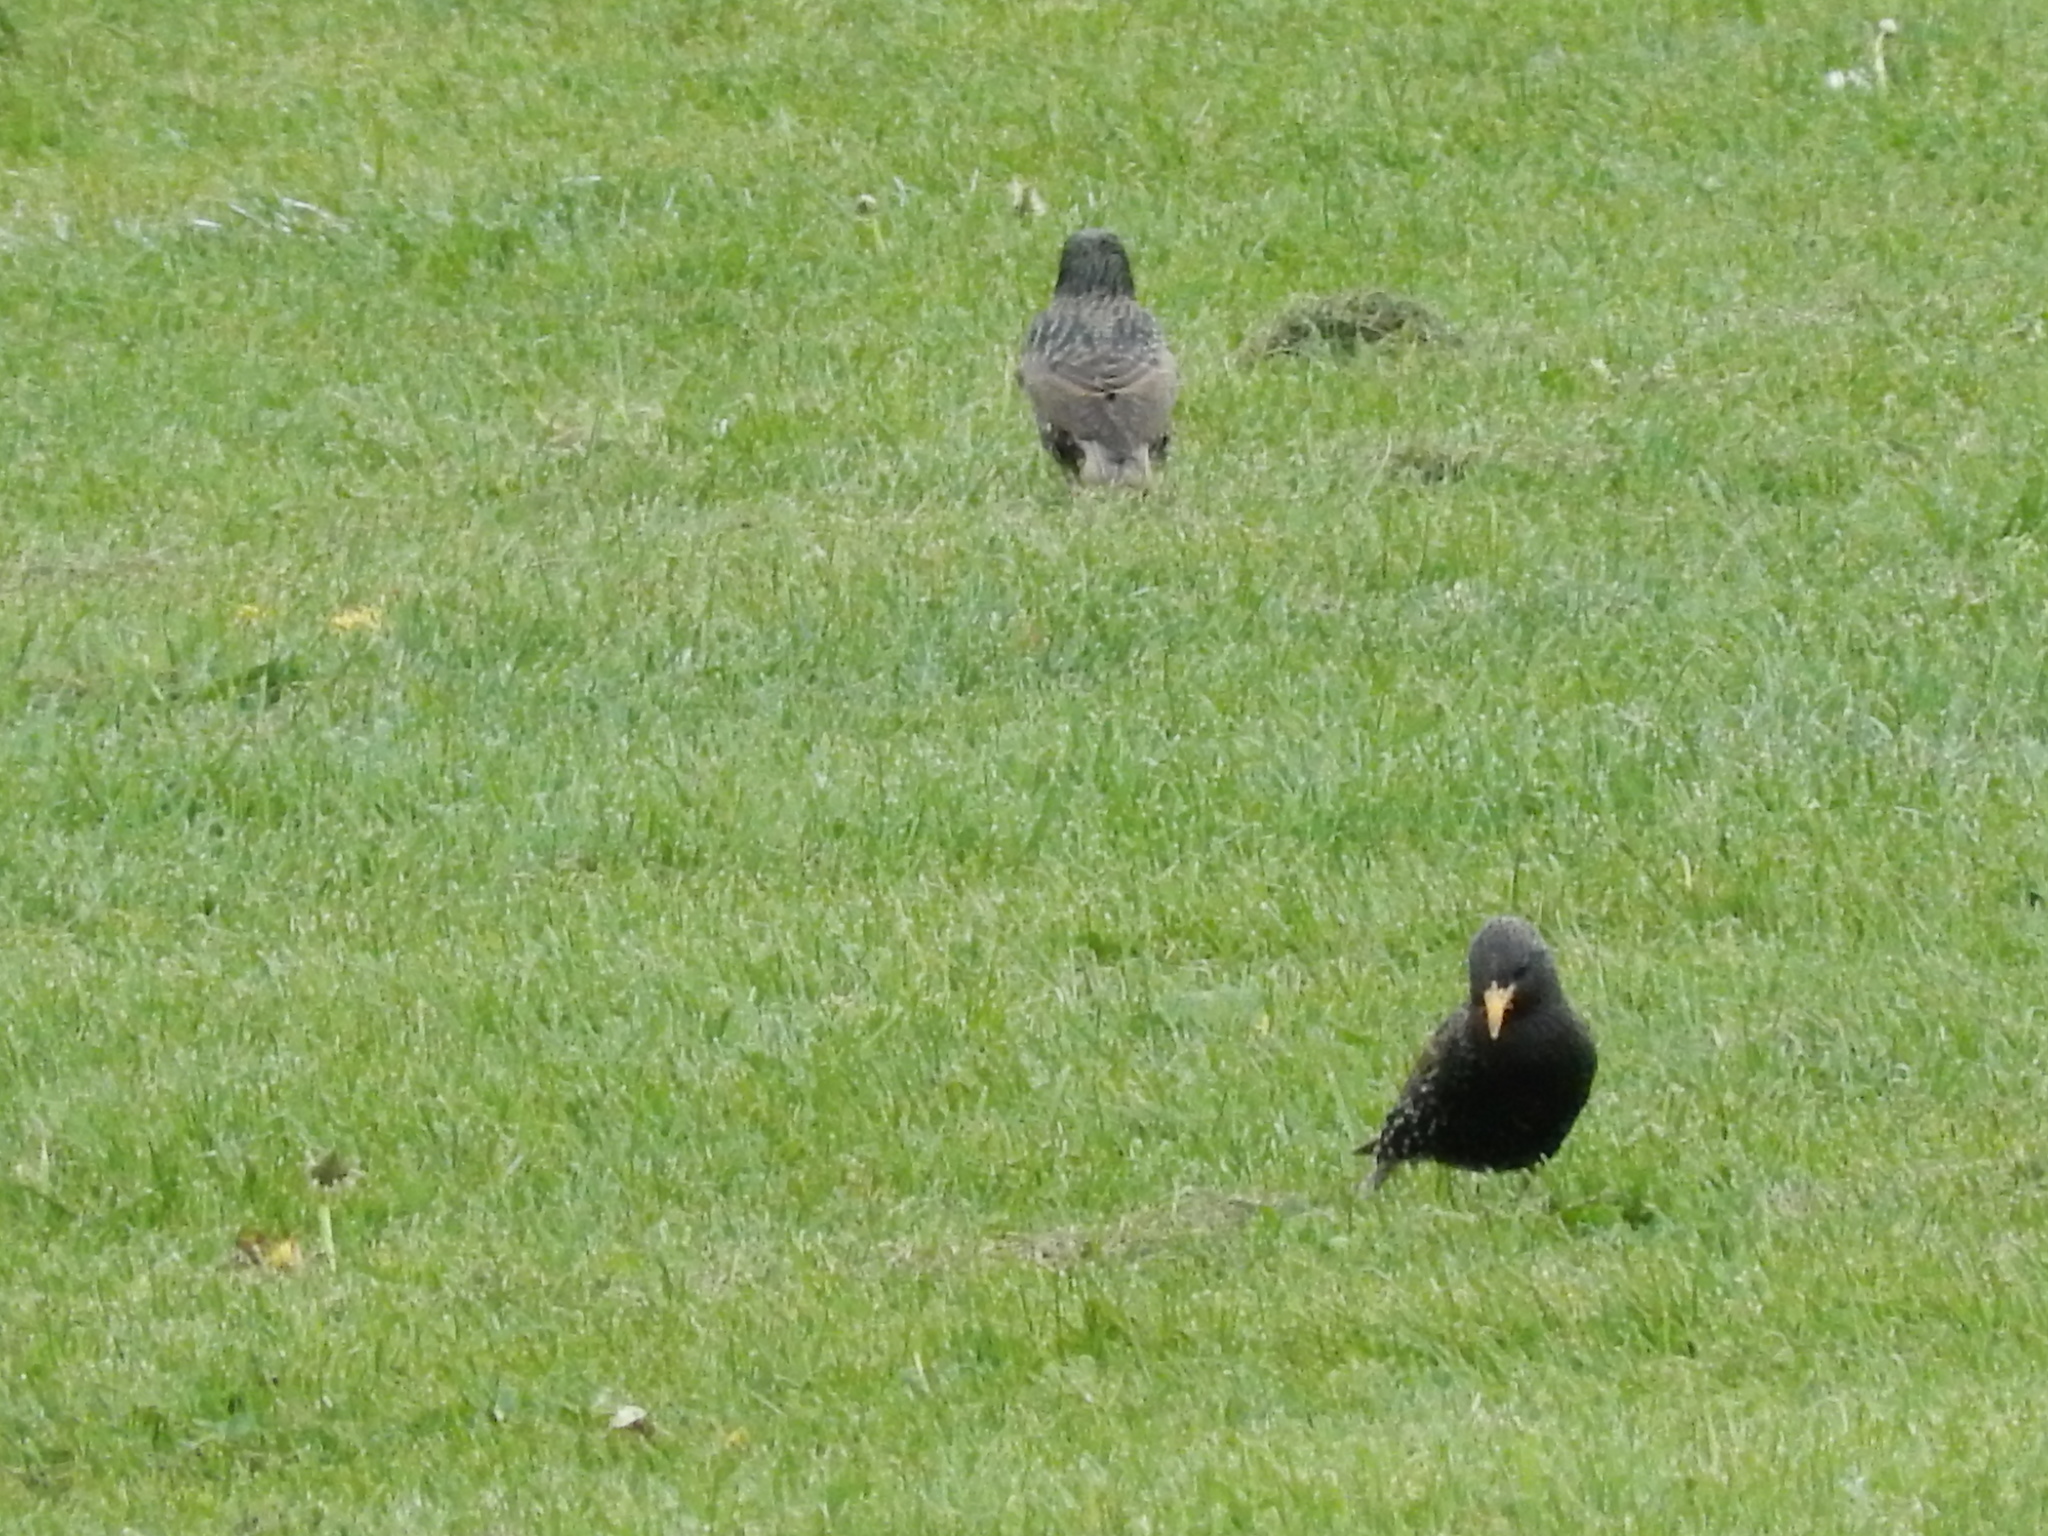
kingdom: Animalia
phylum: Chordata
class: Aves
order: Passeriformes
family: Sturnidae
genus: Sturnus
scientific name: Sturnus vulgaris
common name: Common starling
